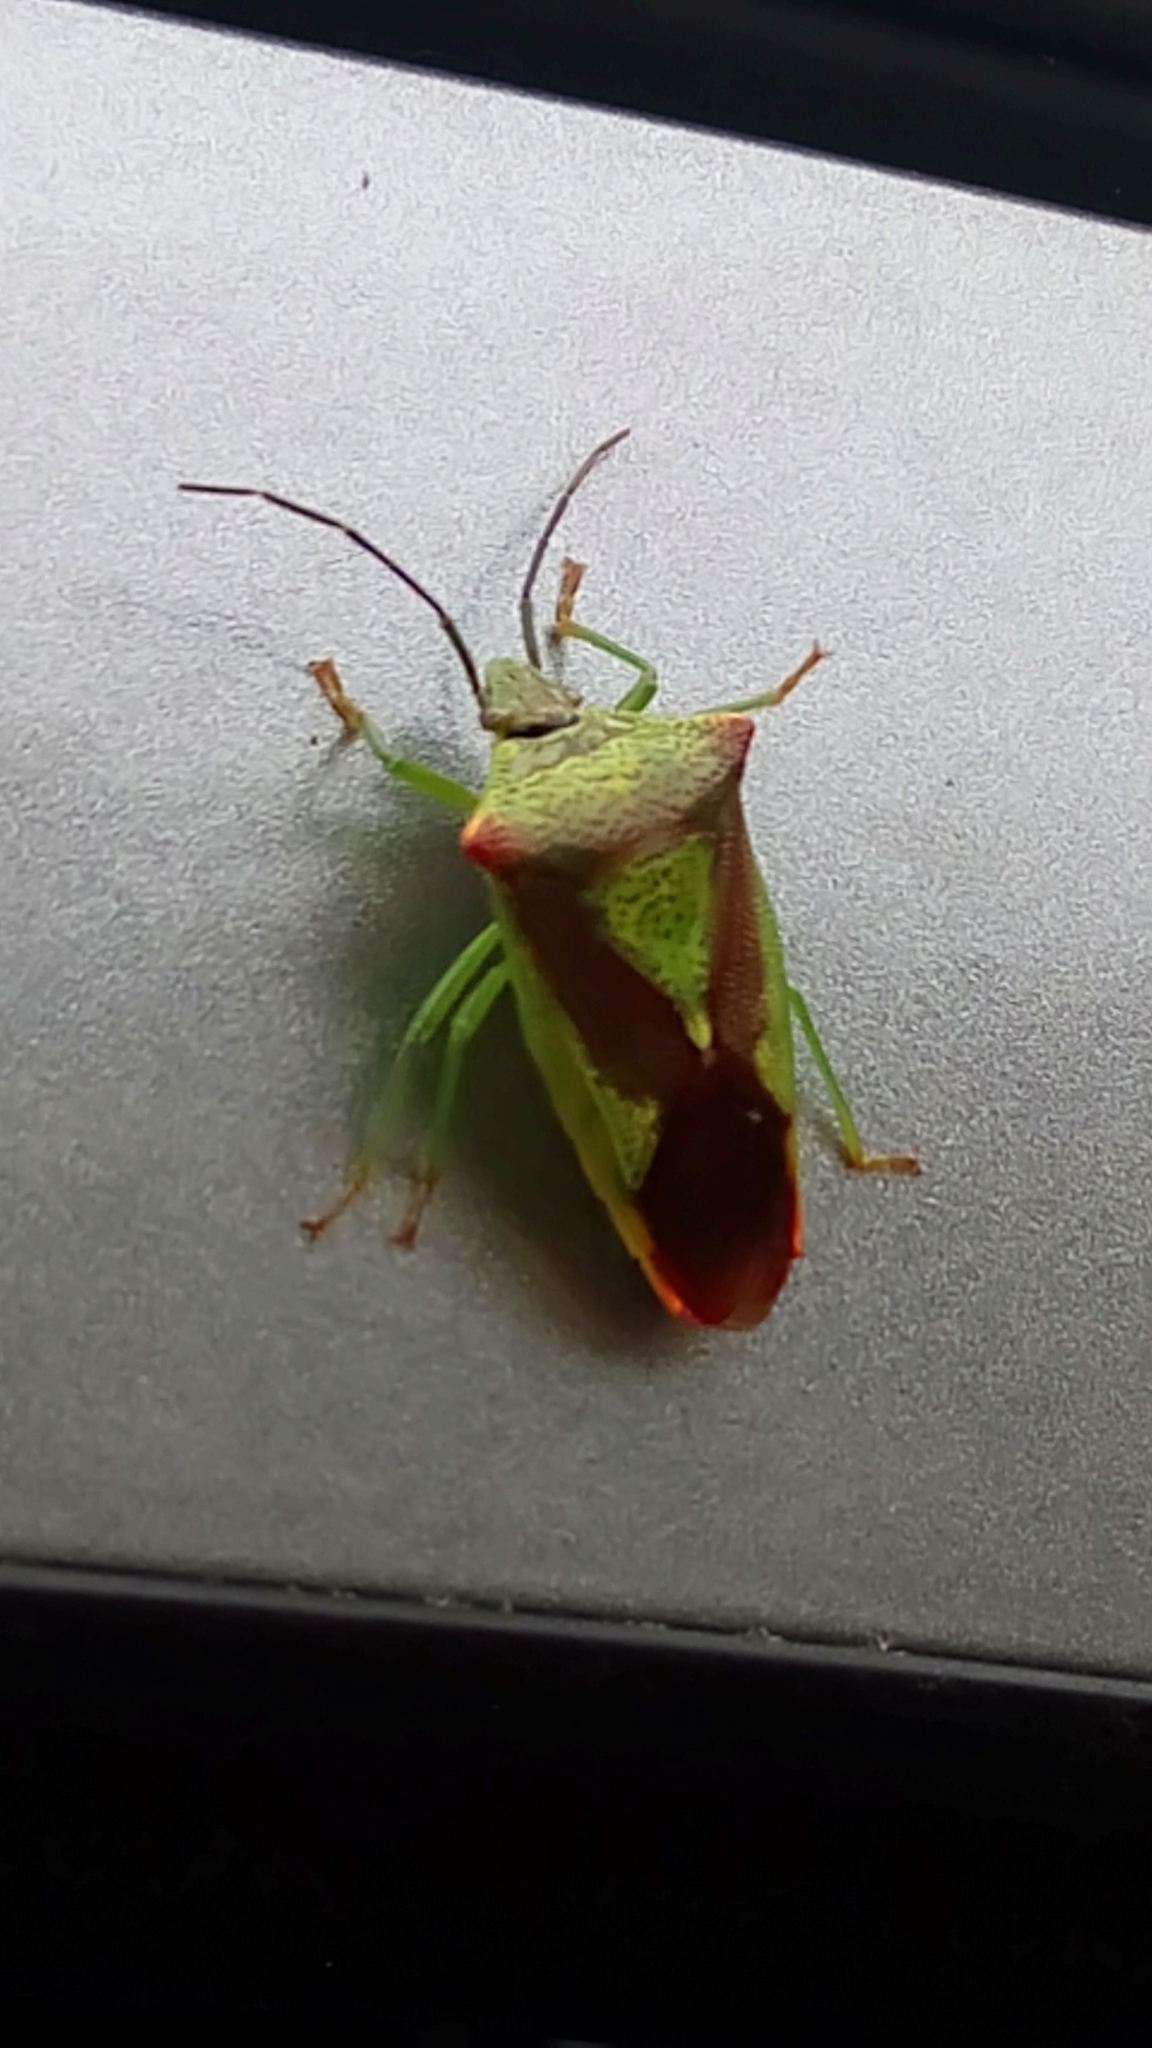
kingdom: Animalia
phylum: Arthropoda
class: Insecta
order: Hemiptera
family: Acanthosomatidae
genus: Acanthosoma
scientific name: Acanthosoma haemorrhoidale
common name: Hawthorn shieldbug
